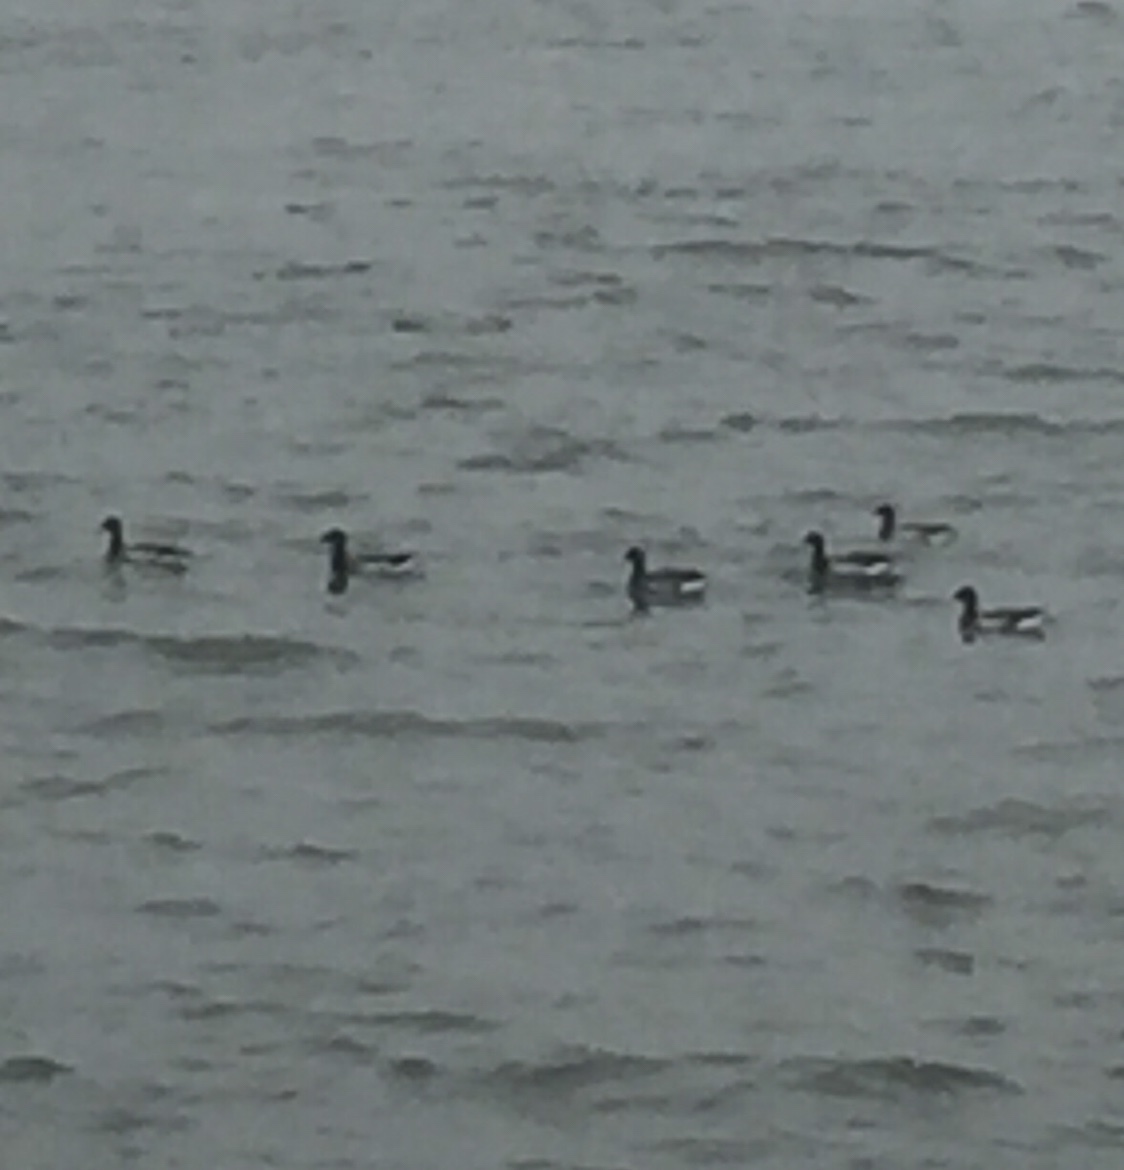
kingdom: Animalia
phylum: Chordata
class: Aves
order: Anseriformes
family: Anatidae
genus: Branta
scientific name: Branta bernicla
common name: Brant goose
